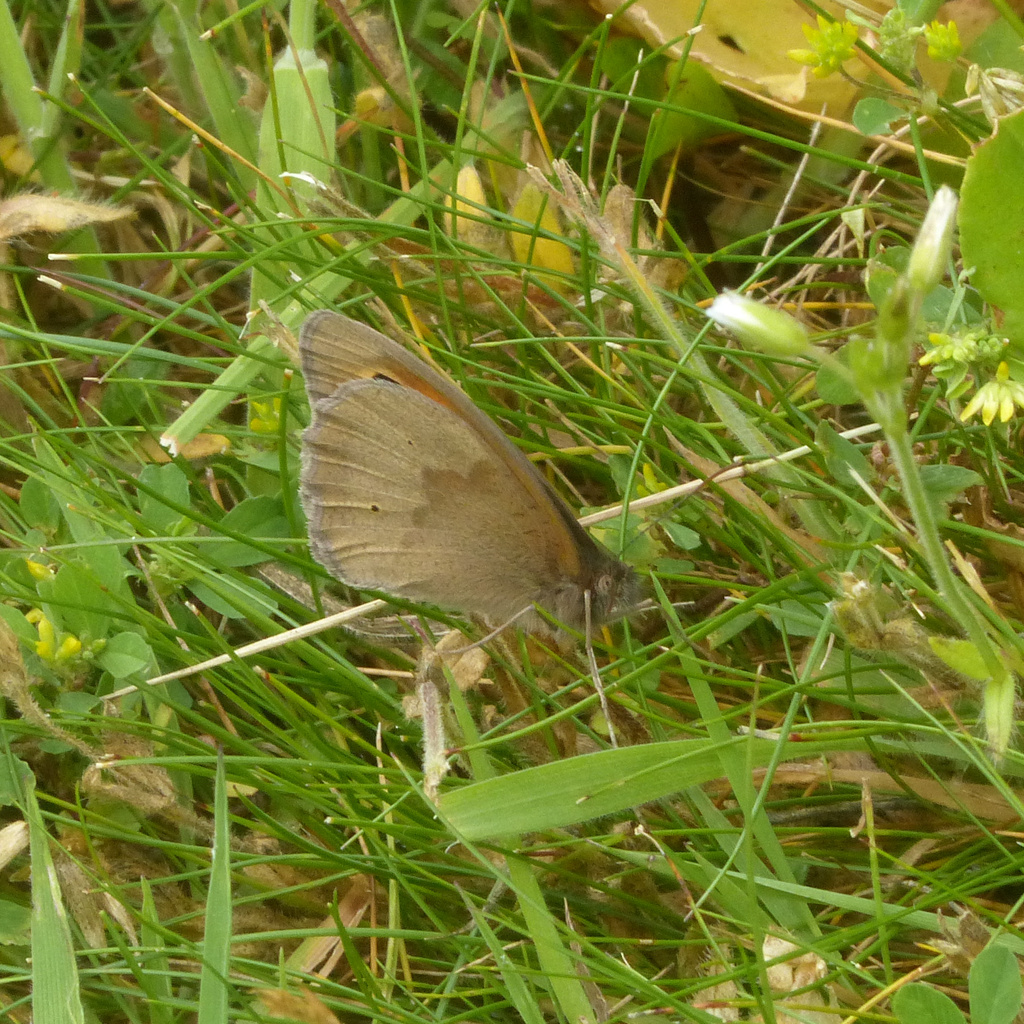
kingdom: Animalia
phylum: Arthropoda
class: Insecta
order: Lepidoptera
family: Nymphalidae
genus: Maniola
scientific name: Maniola jurtina
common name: Meadow brown
